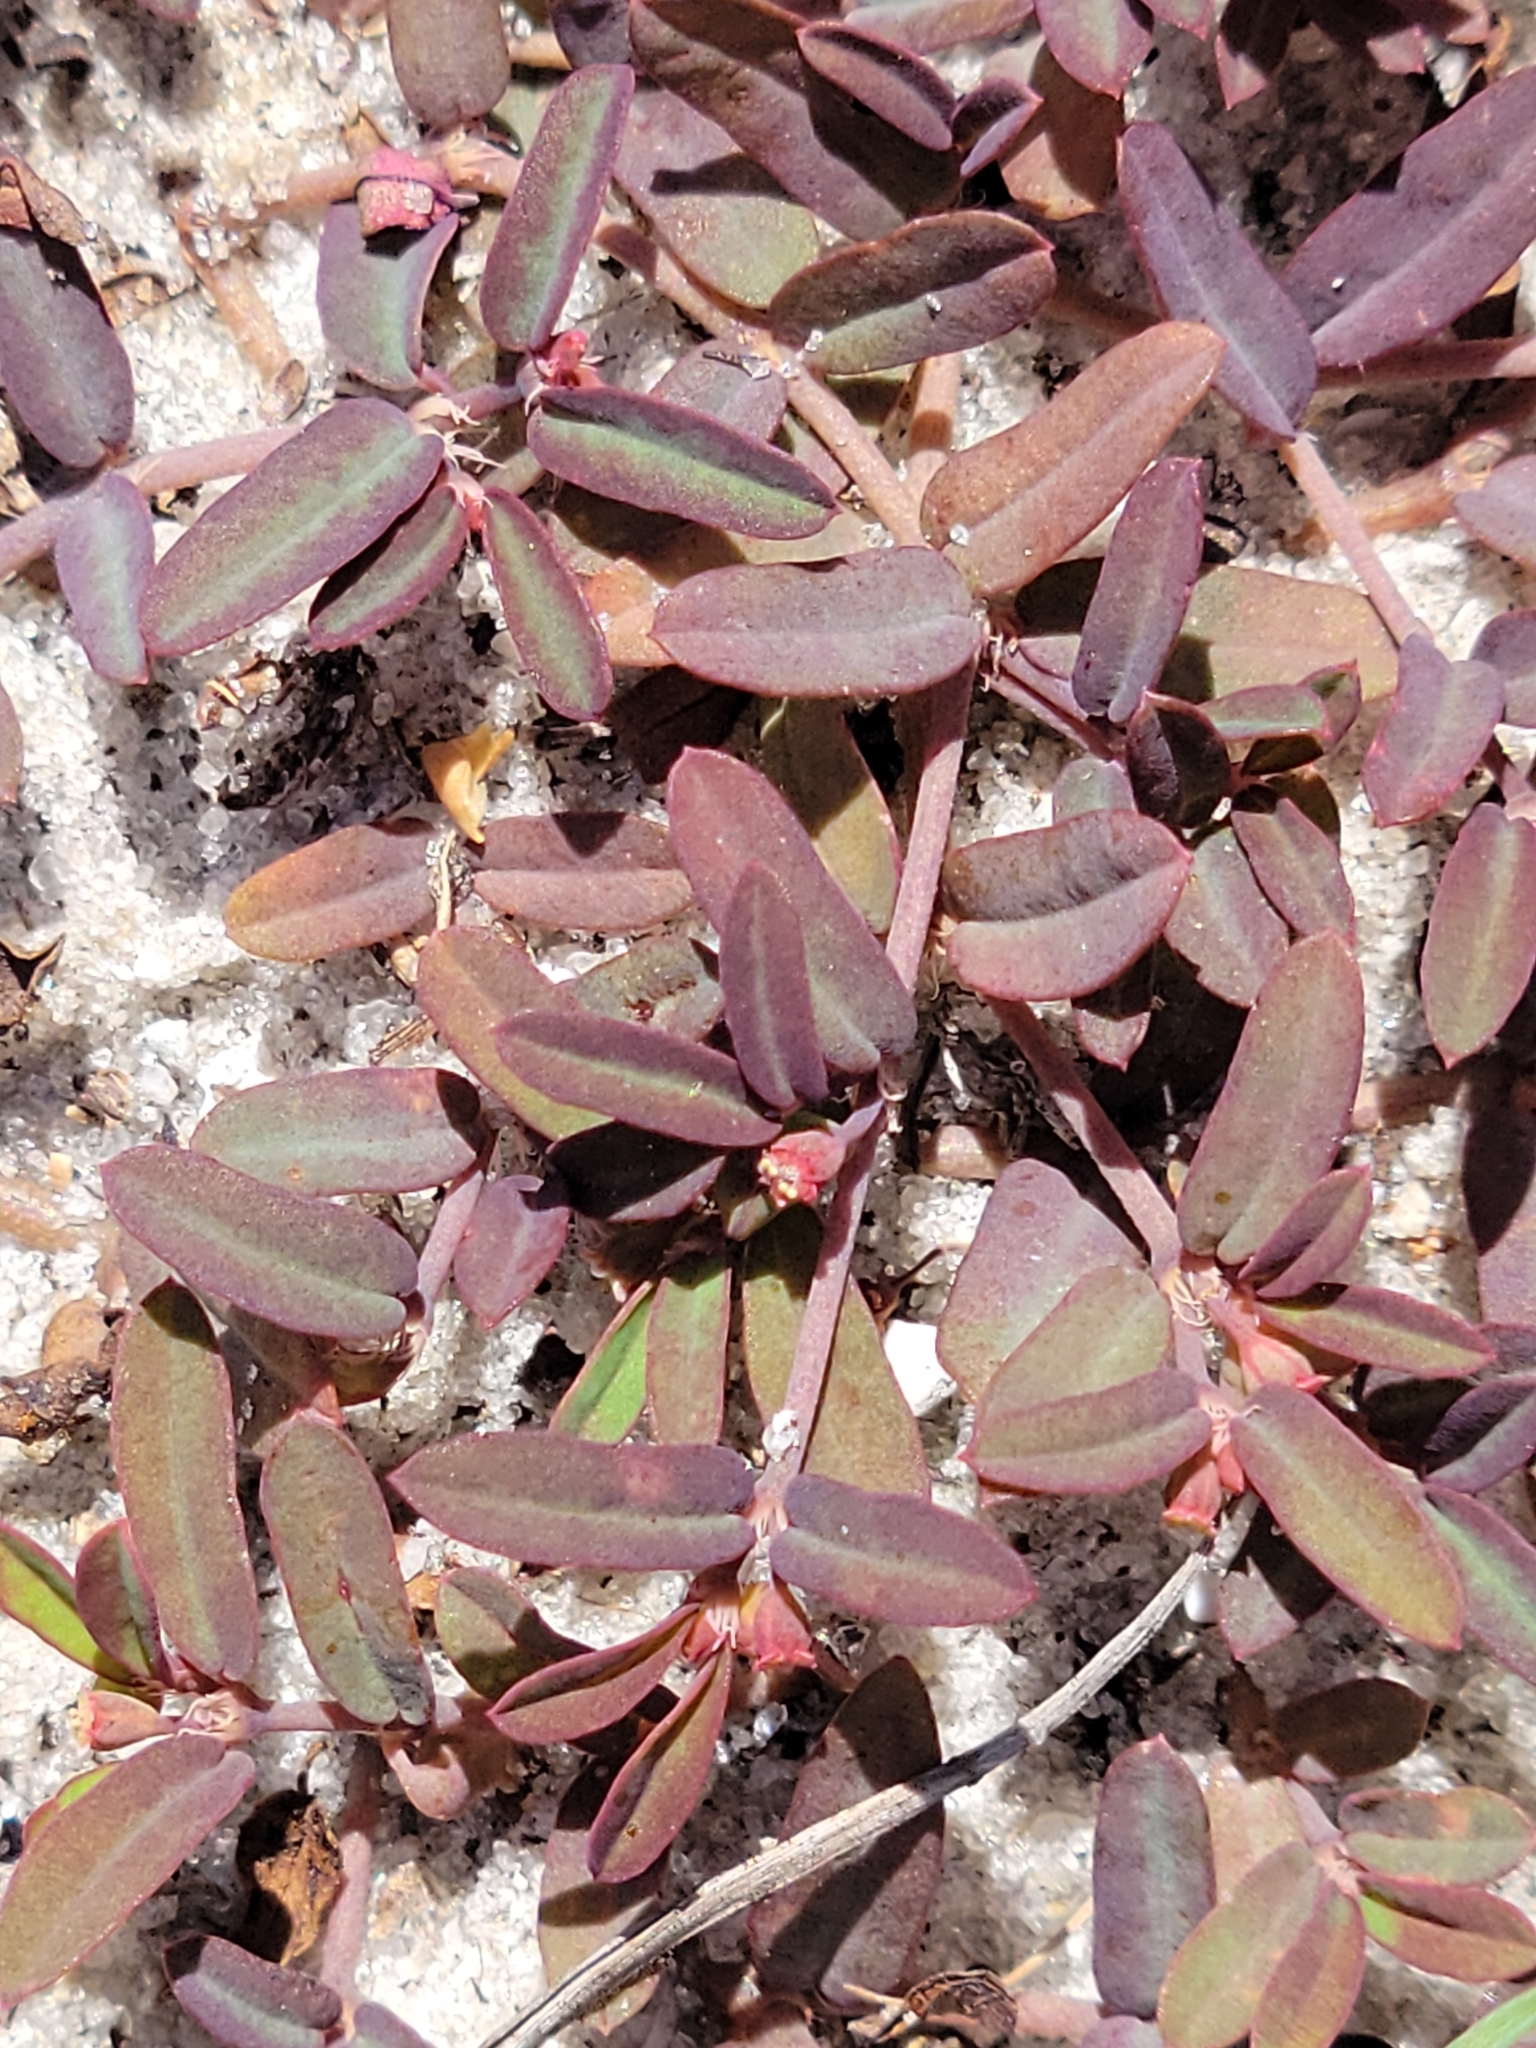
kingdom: Plantae
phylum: Tracheophyta
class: Magnoliopsida
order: Malpighiales
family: Euphorbiaceae
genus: Euphorbia
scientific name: Euphorbia cumulicola
